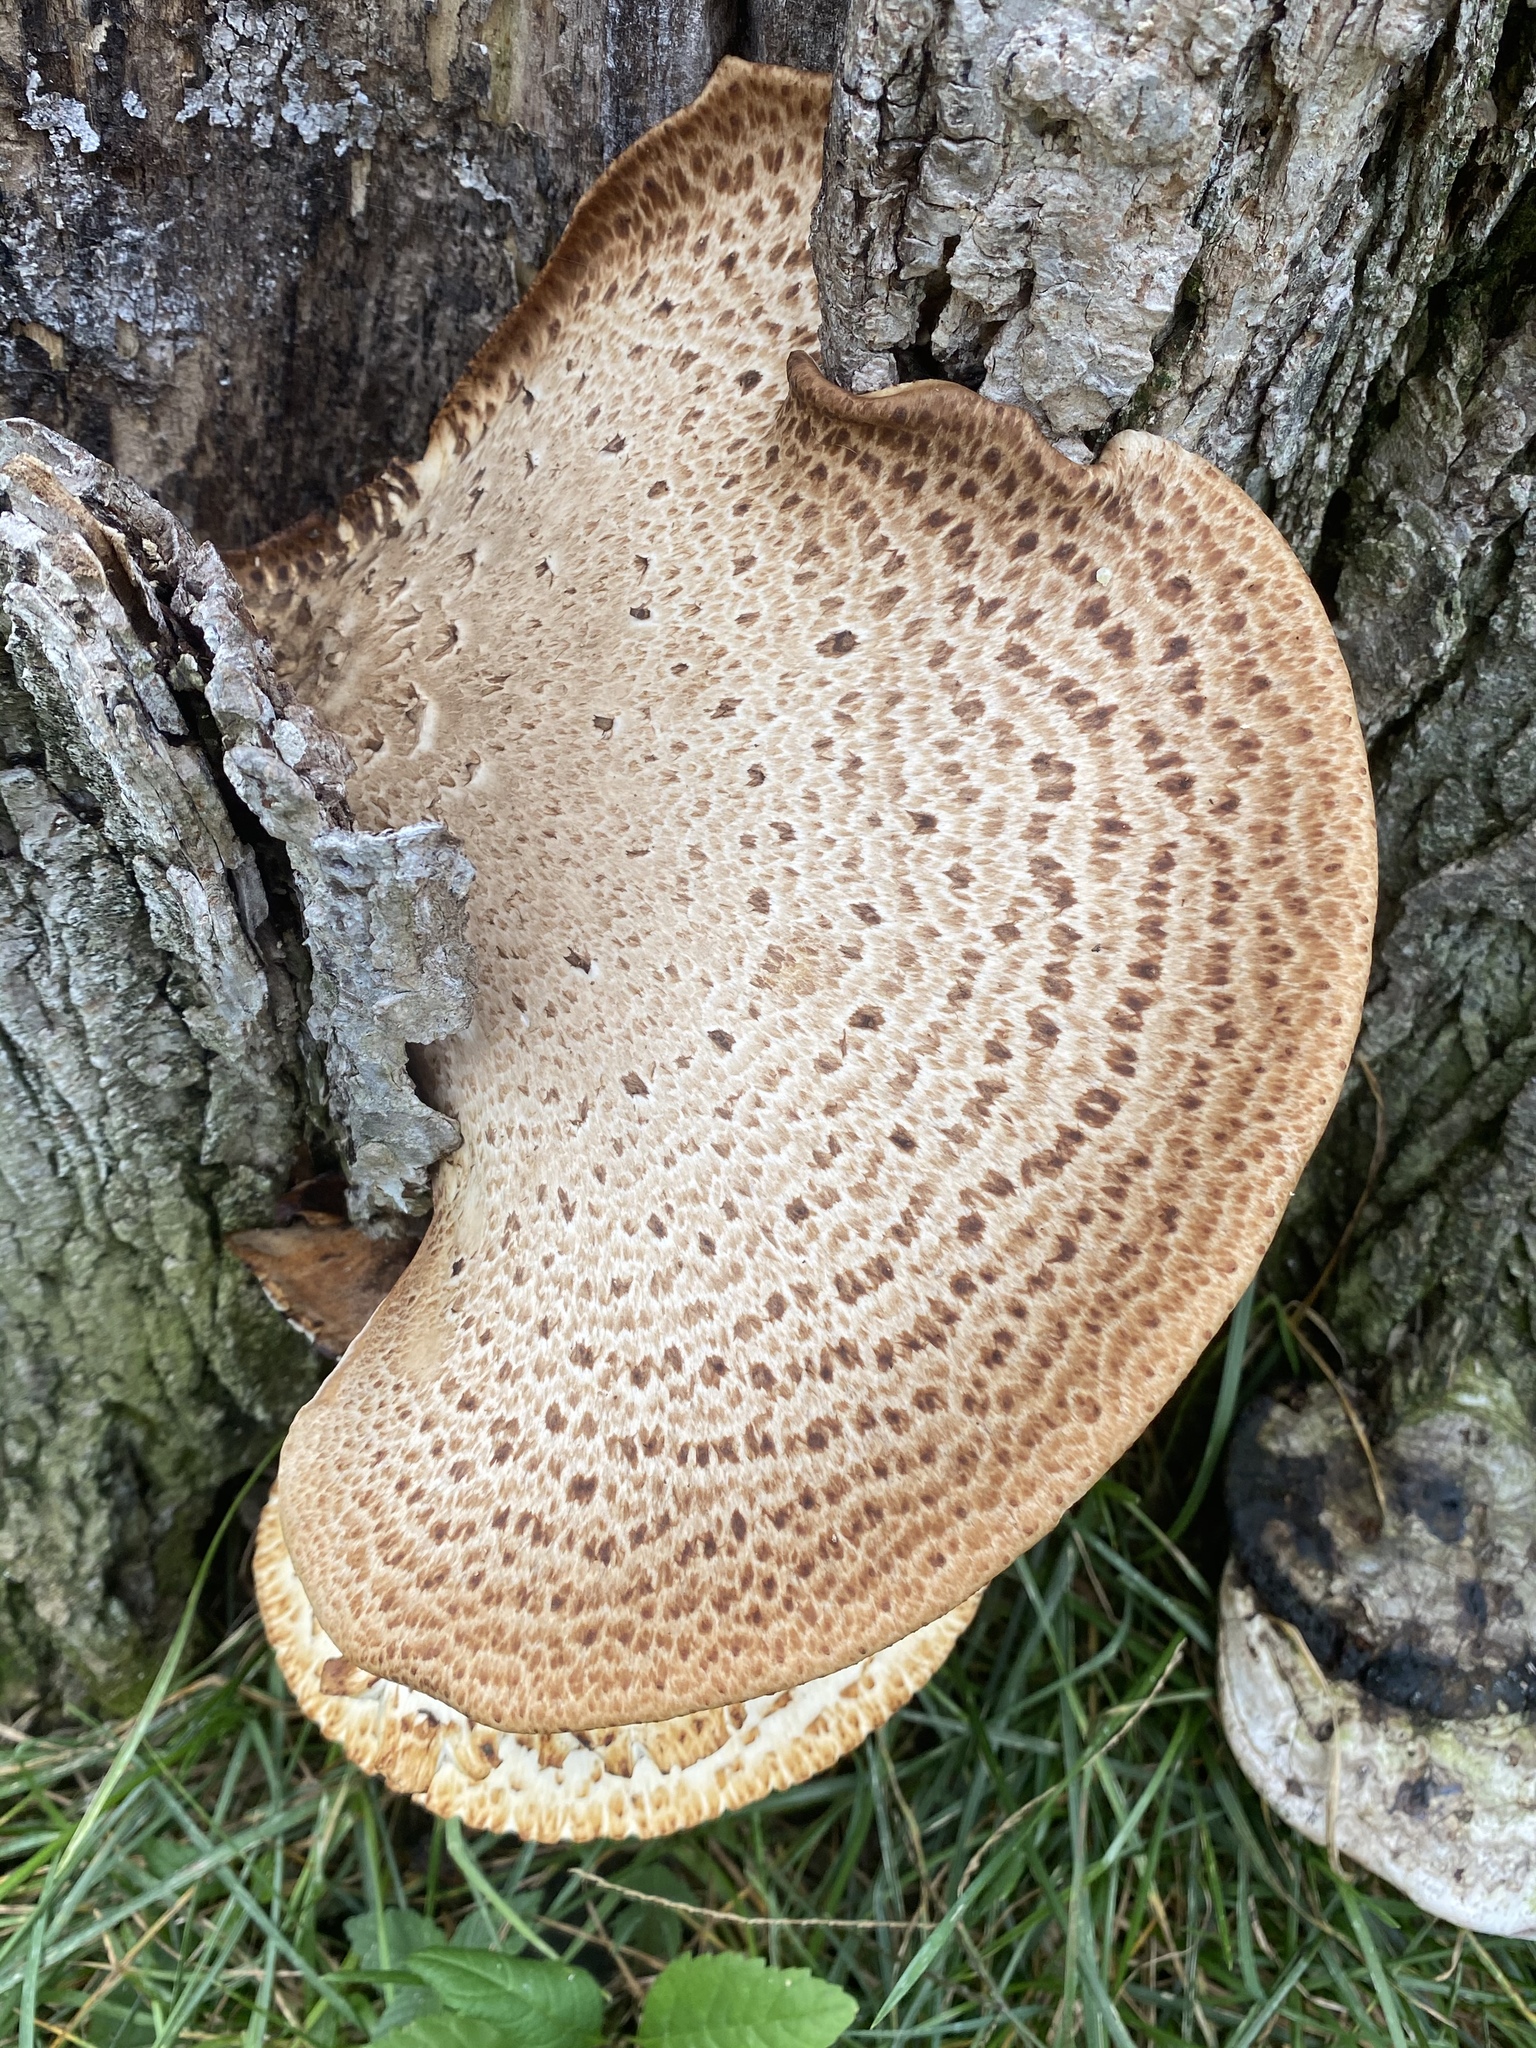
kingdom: Fungi
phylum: Basidiomycota
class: Agaricomycetes
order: Polyporales
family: Polyporaceae
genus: Cerioporus
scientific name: Cerioporus squamosus
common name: Dryad's saddle
